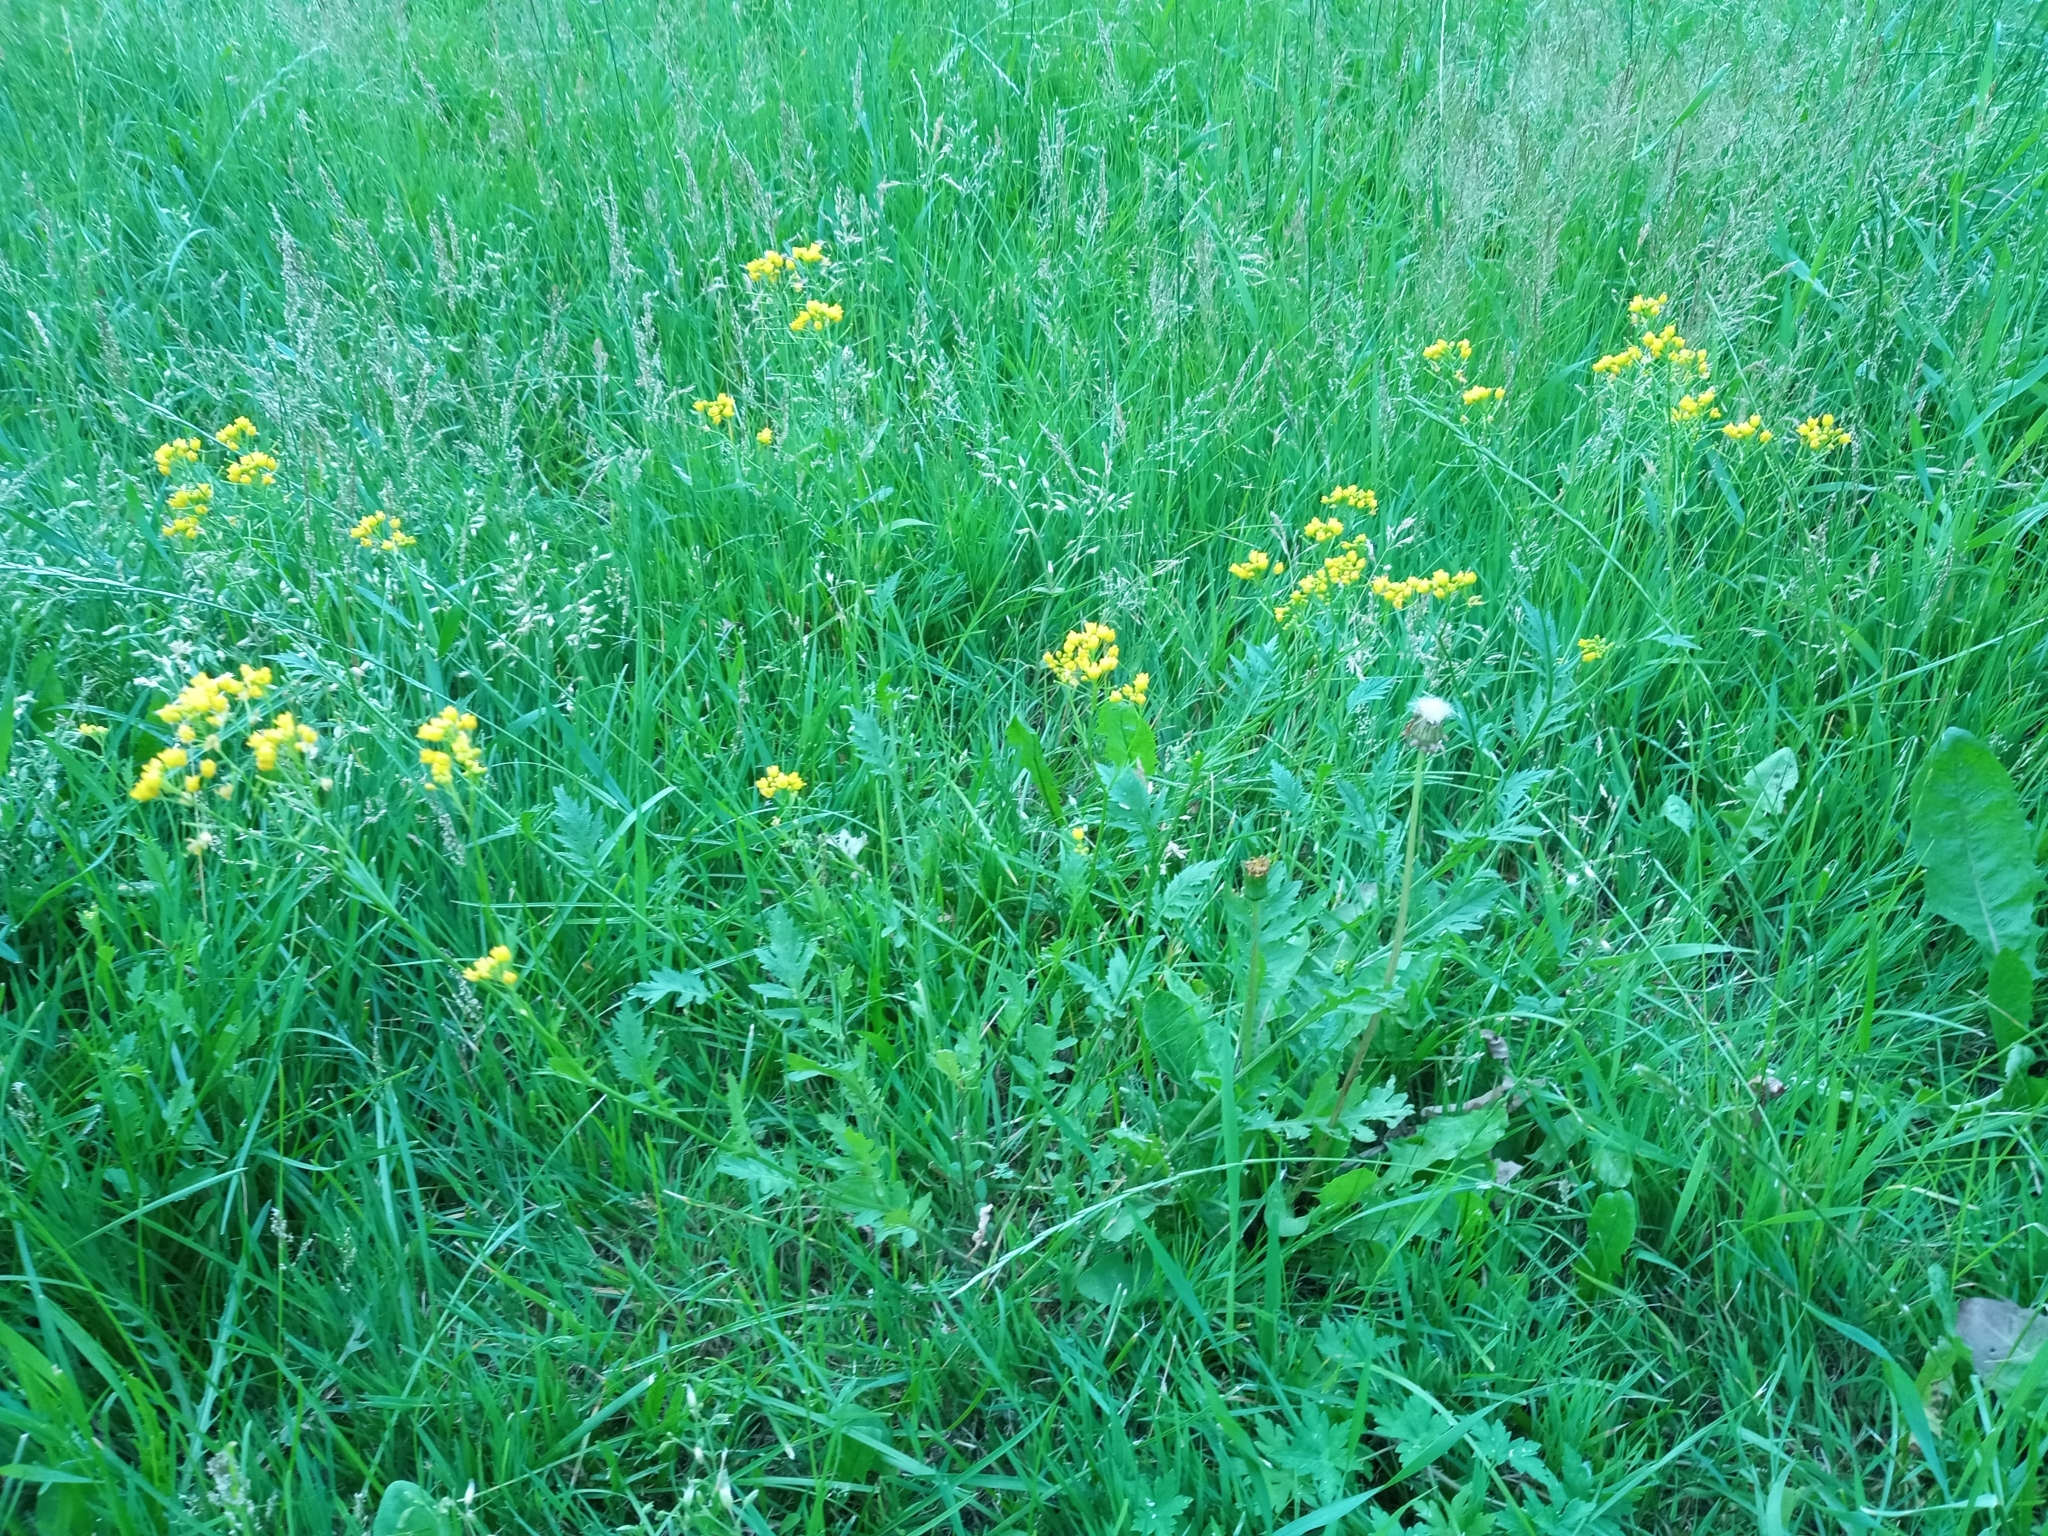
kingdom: Plantae
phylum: Tracheophyta
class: Magnoliopsida
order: Brassicales
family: Brassicaceae
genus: Rorippa
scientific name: Rorippa sylvestris
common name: Creeping yellowcress
